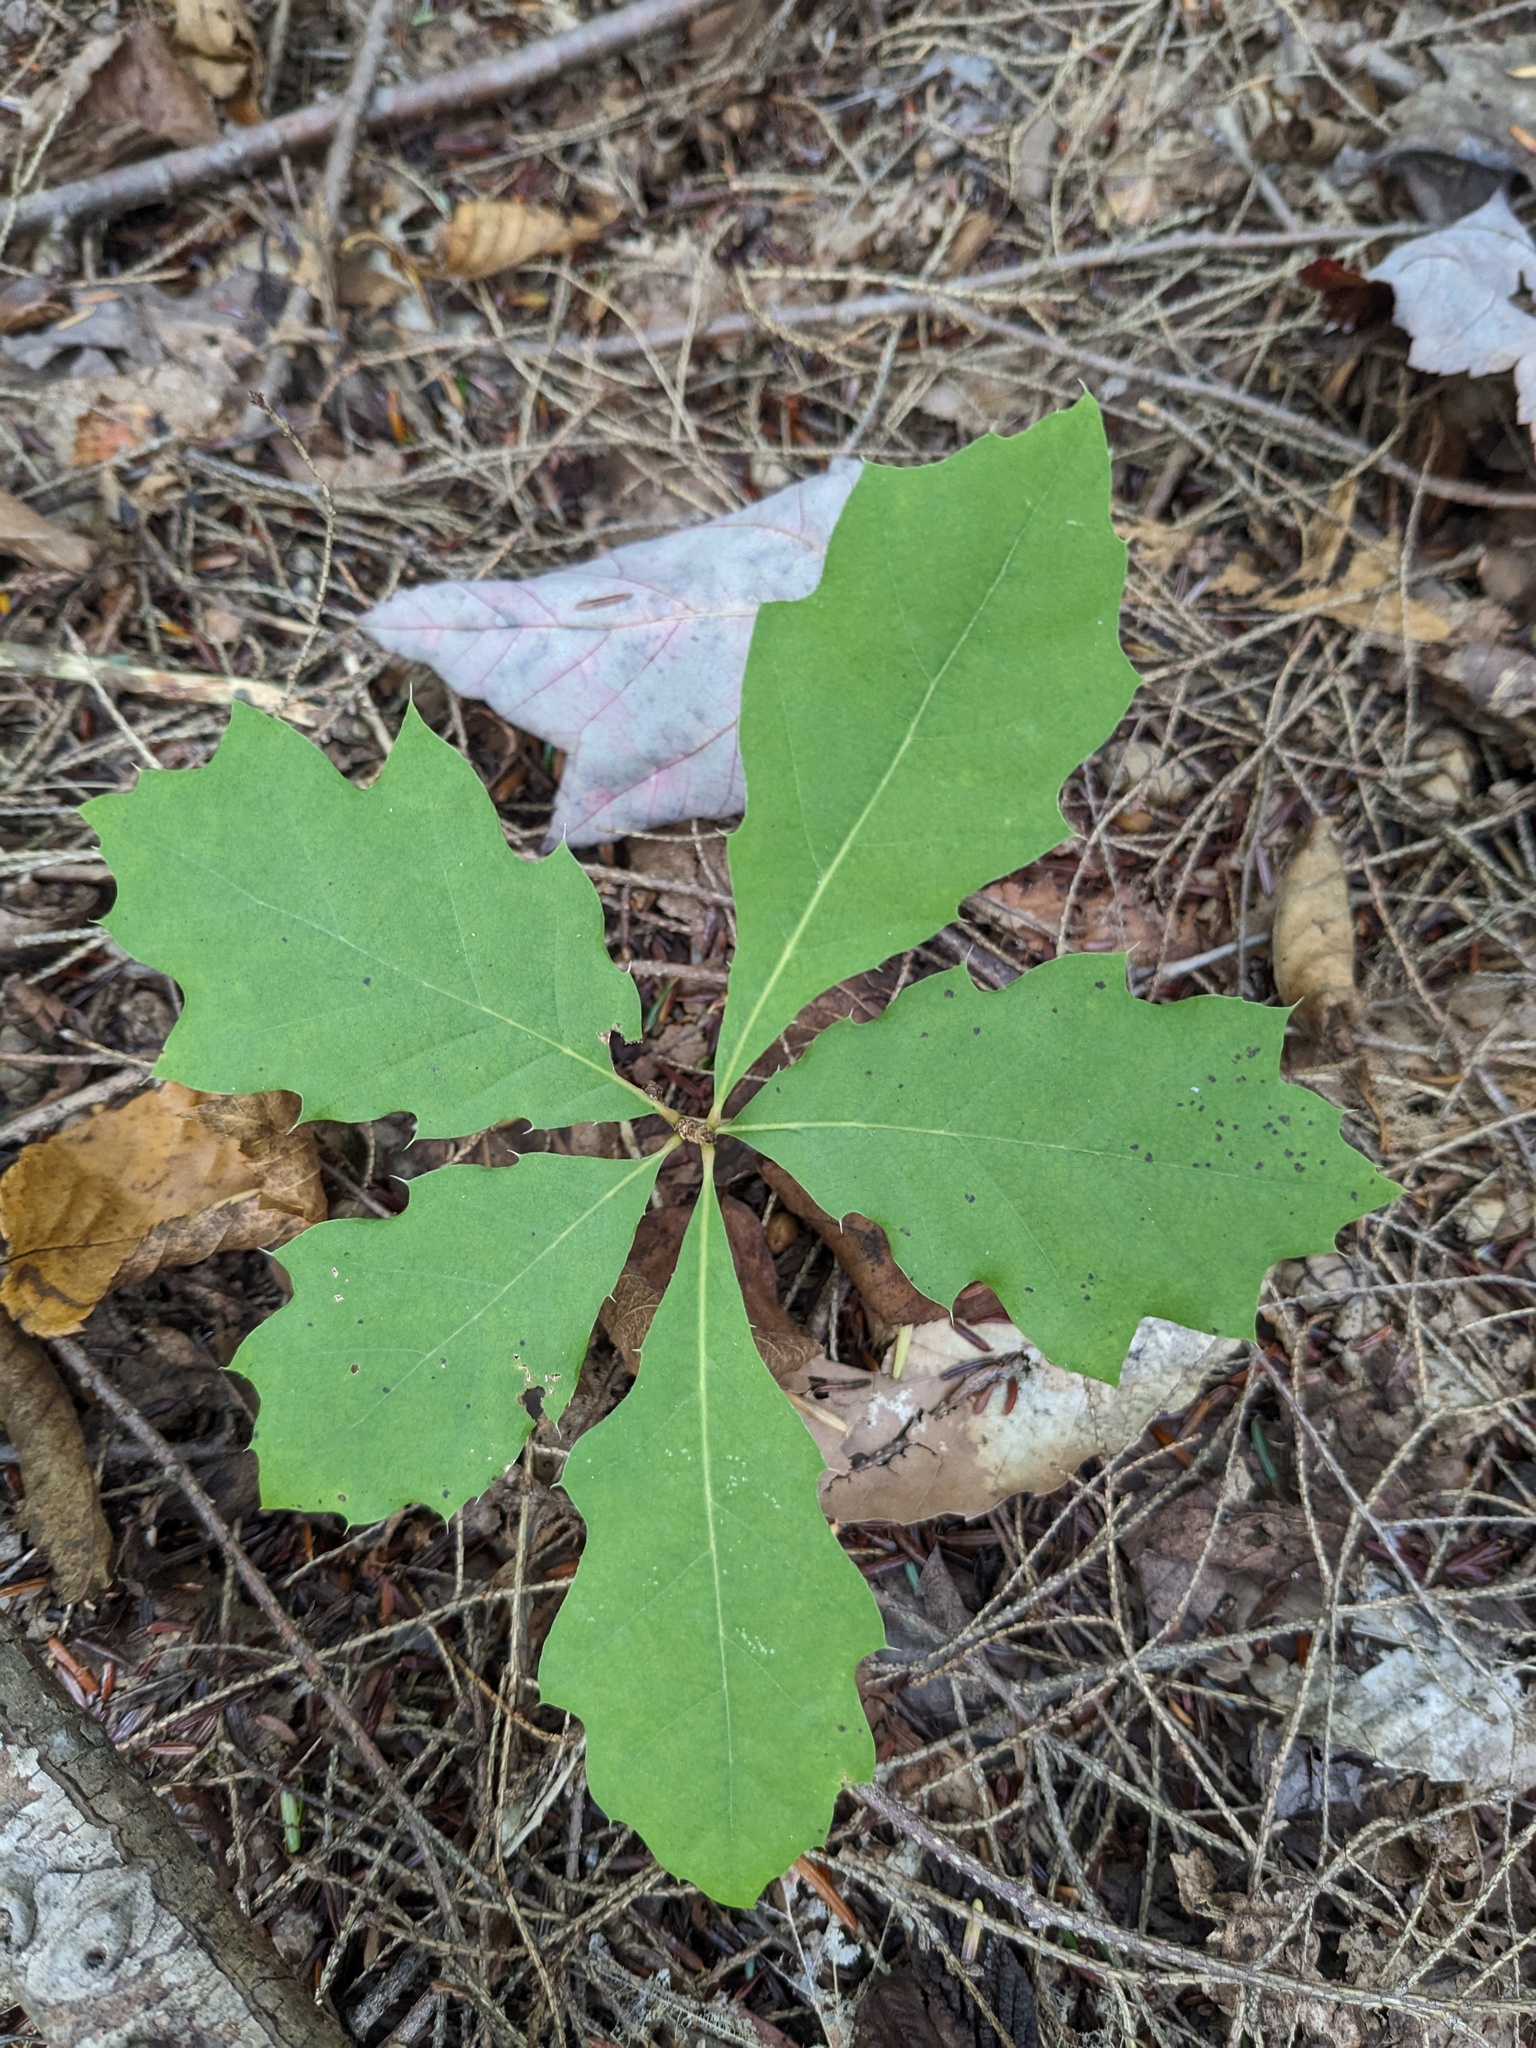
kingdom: Plantae
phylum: Tracheophyta
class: Magnoliopsida
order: Fagales
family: Fagaceae
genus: Quercus
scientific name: Quercus rubra
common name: Red oak
